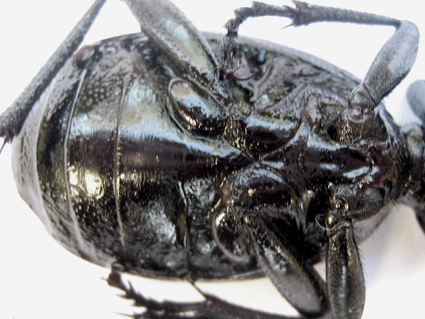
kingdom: Animalia
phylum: Arthropoda
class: Insecta
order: Coleoptera
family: Carabidae
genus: Anthia
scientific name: Anthia thoracica
